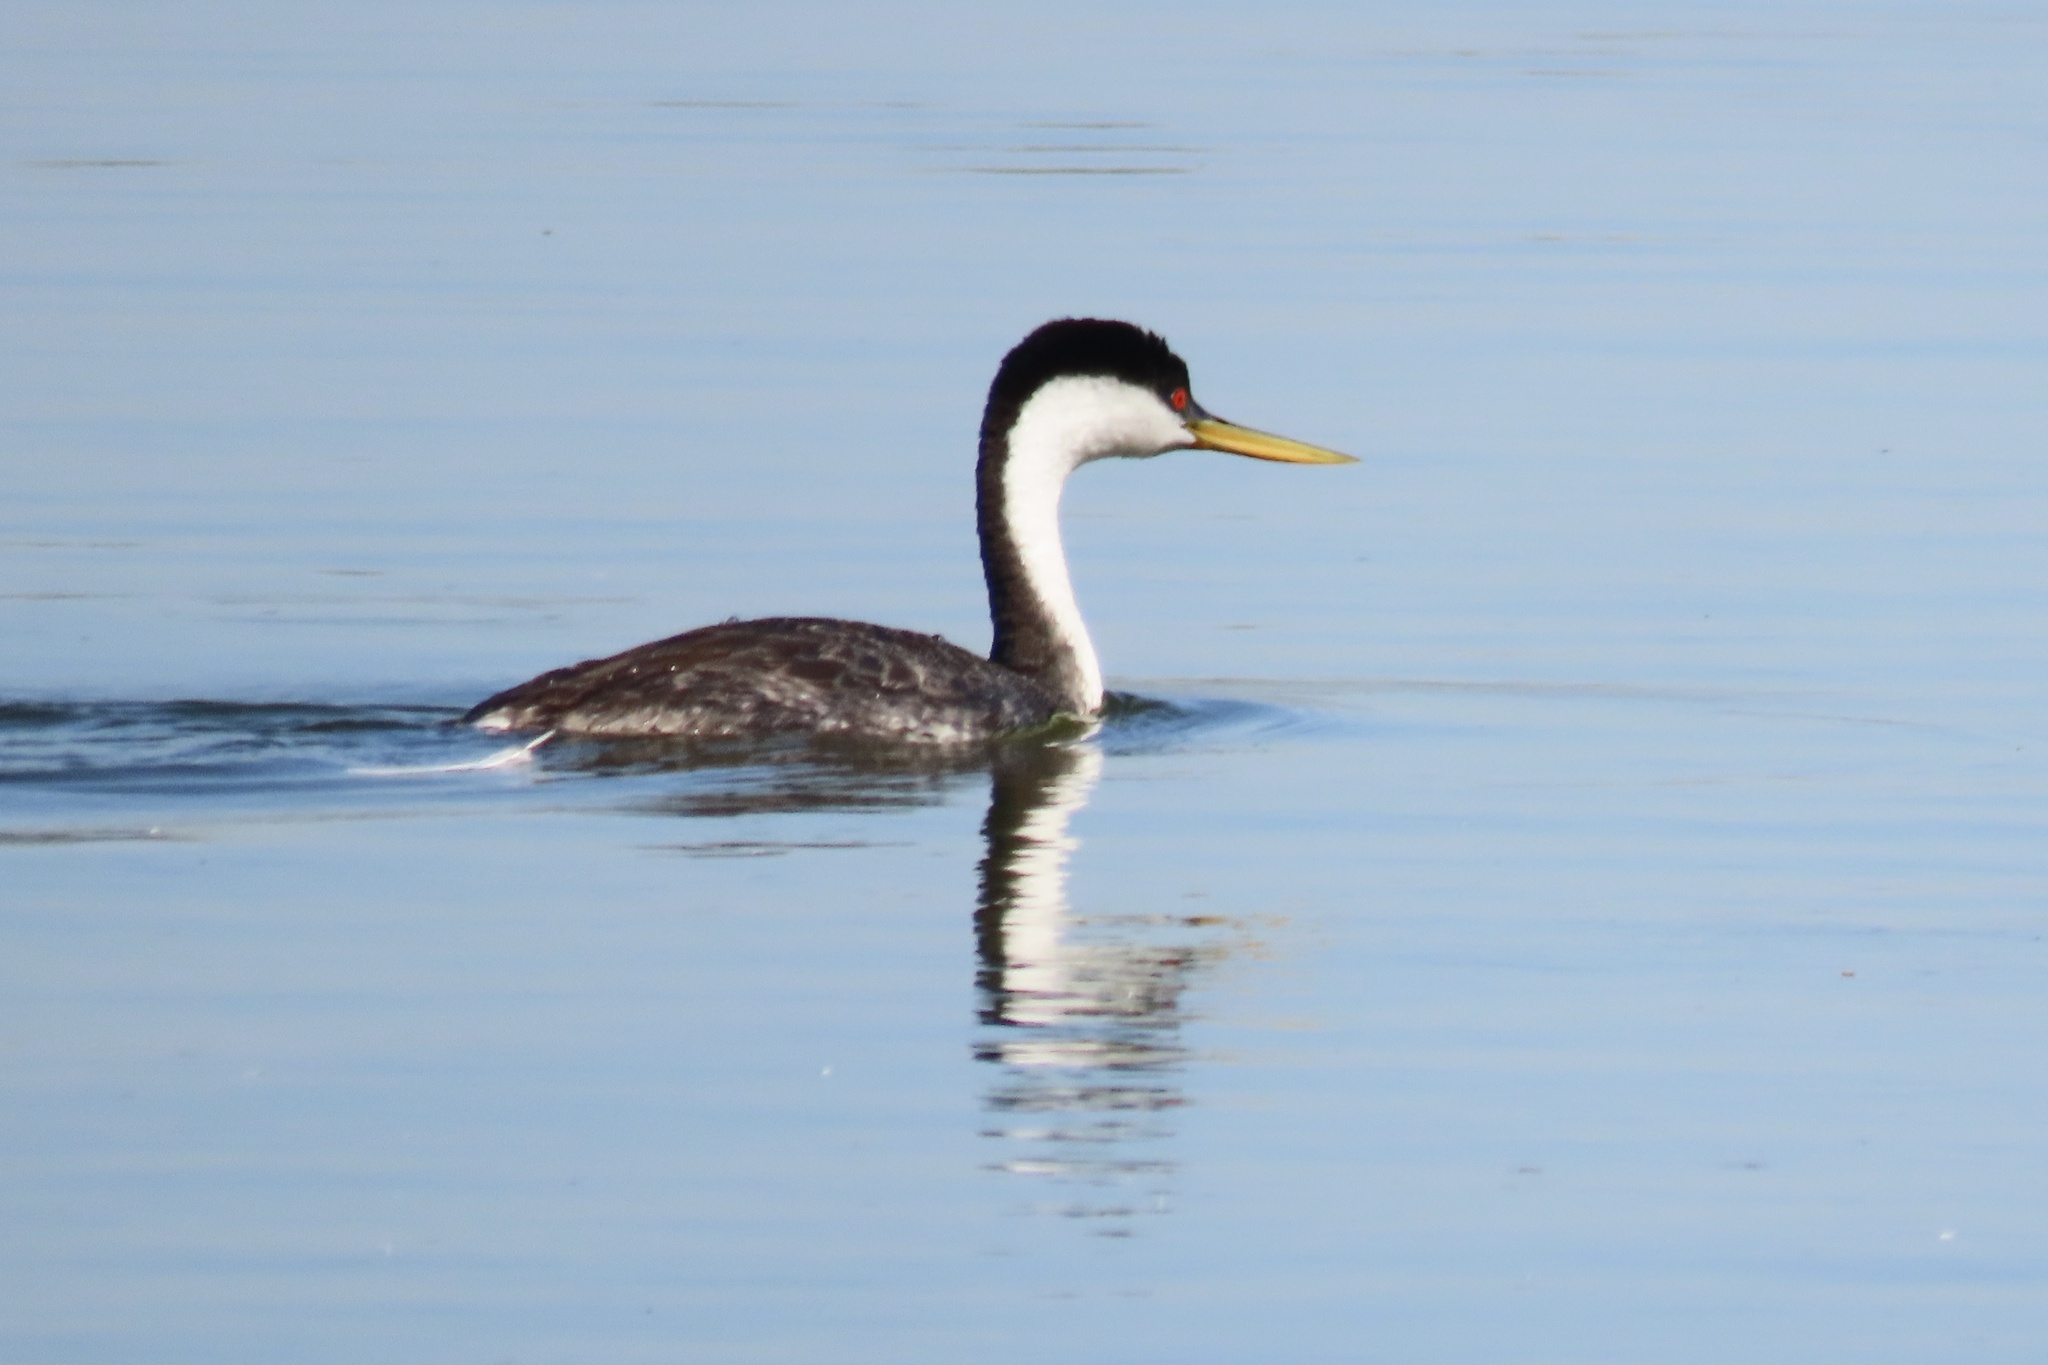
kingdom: Animalia
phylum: Chordata
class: Aves
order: Podicipediformes
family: Podicipedidae
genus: Aechmophorus
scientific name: Aechmophorus occidentalis
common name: Western grebe
